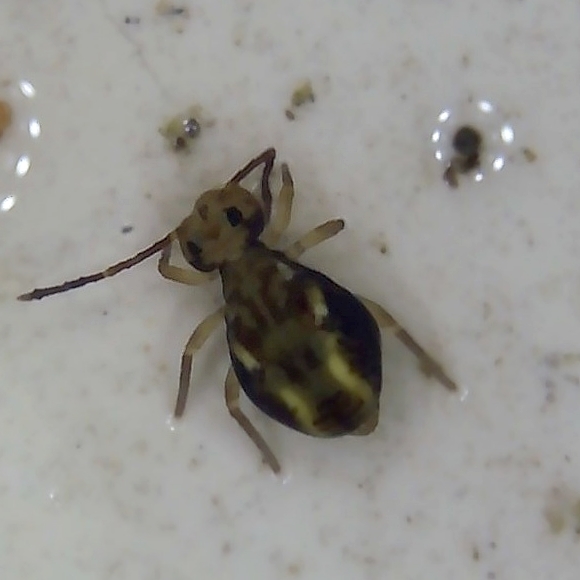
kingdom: Animalia
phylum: Arthropoda
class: Collembola
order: Symphypleona
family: Dicyrtomidae
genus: Dicyrtomina
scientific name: Dicyrtomina saundersi
